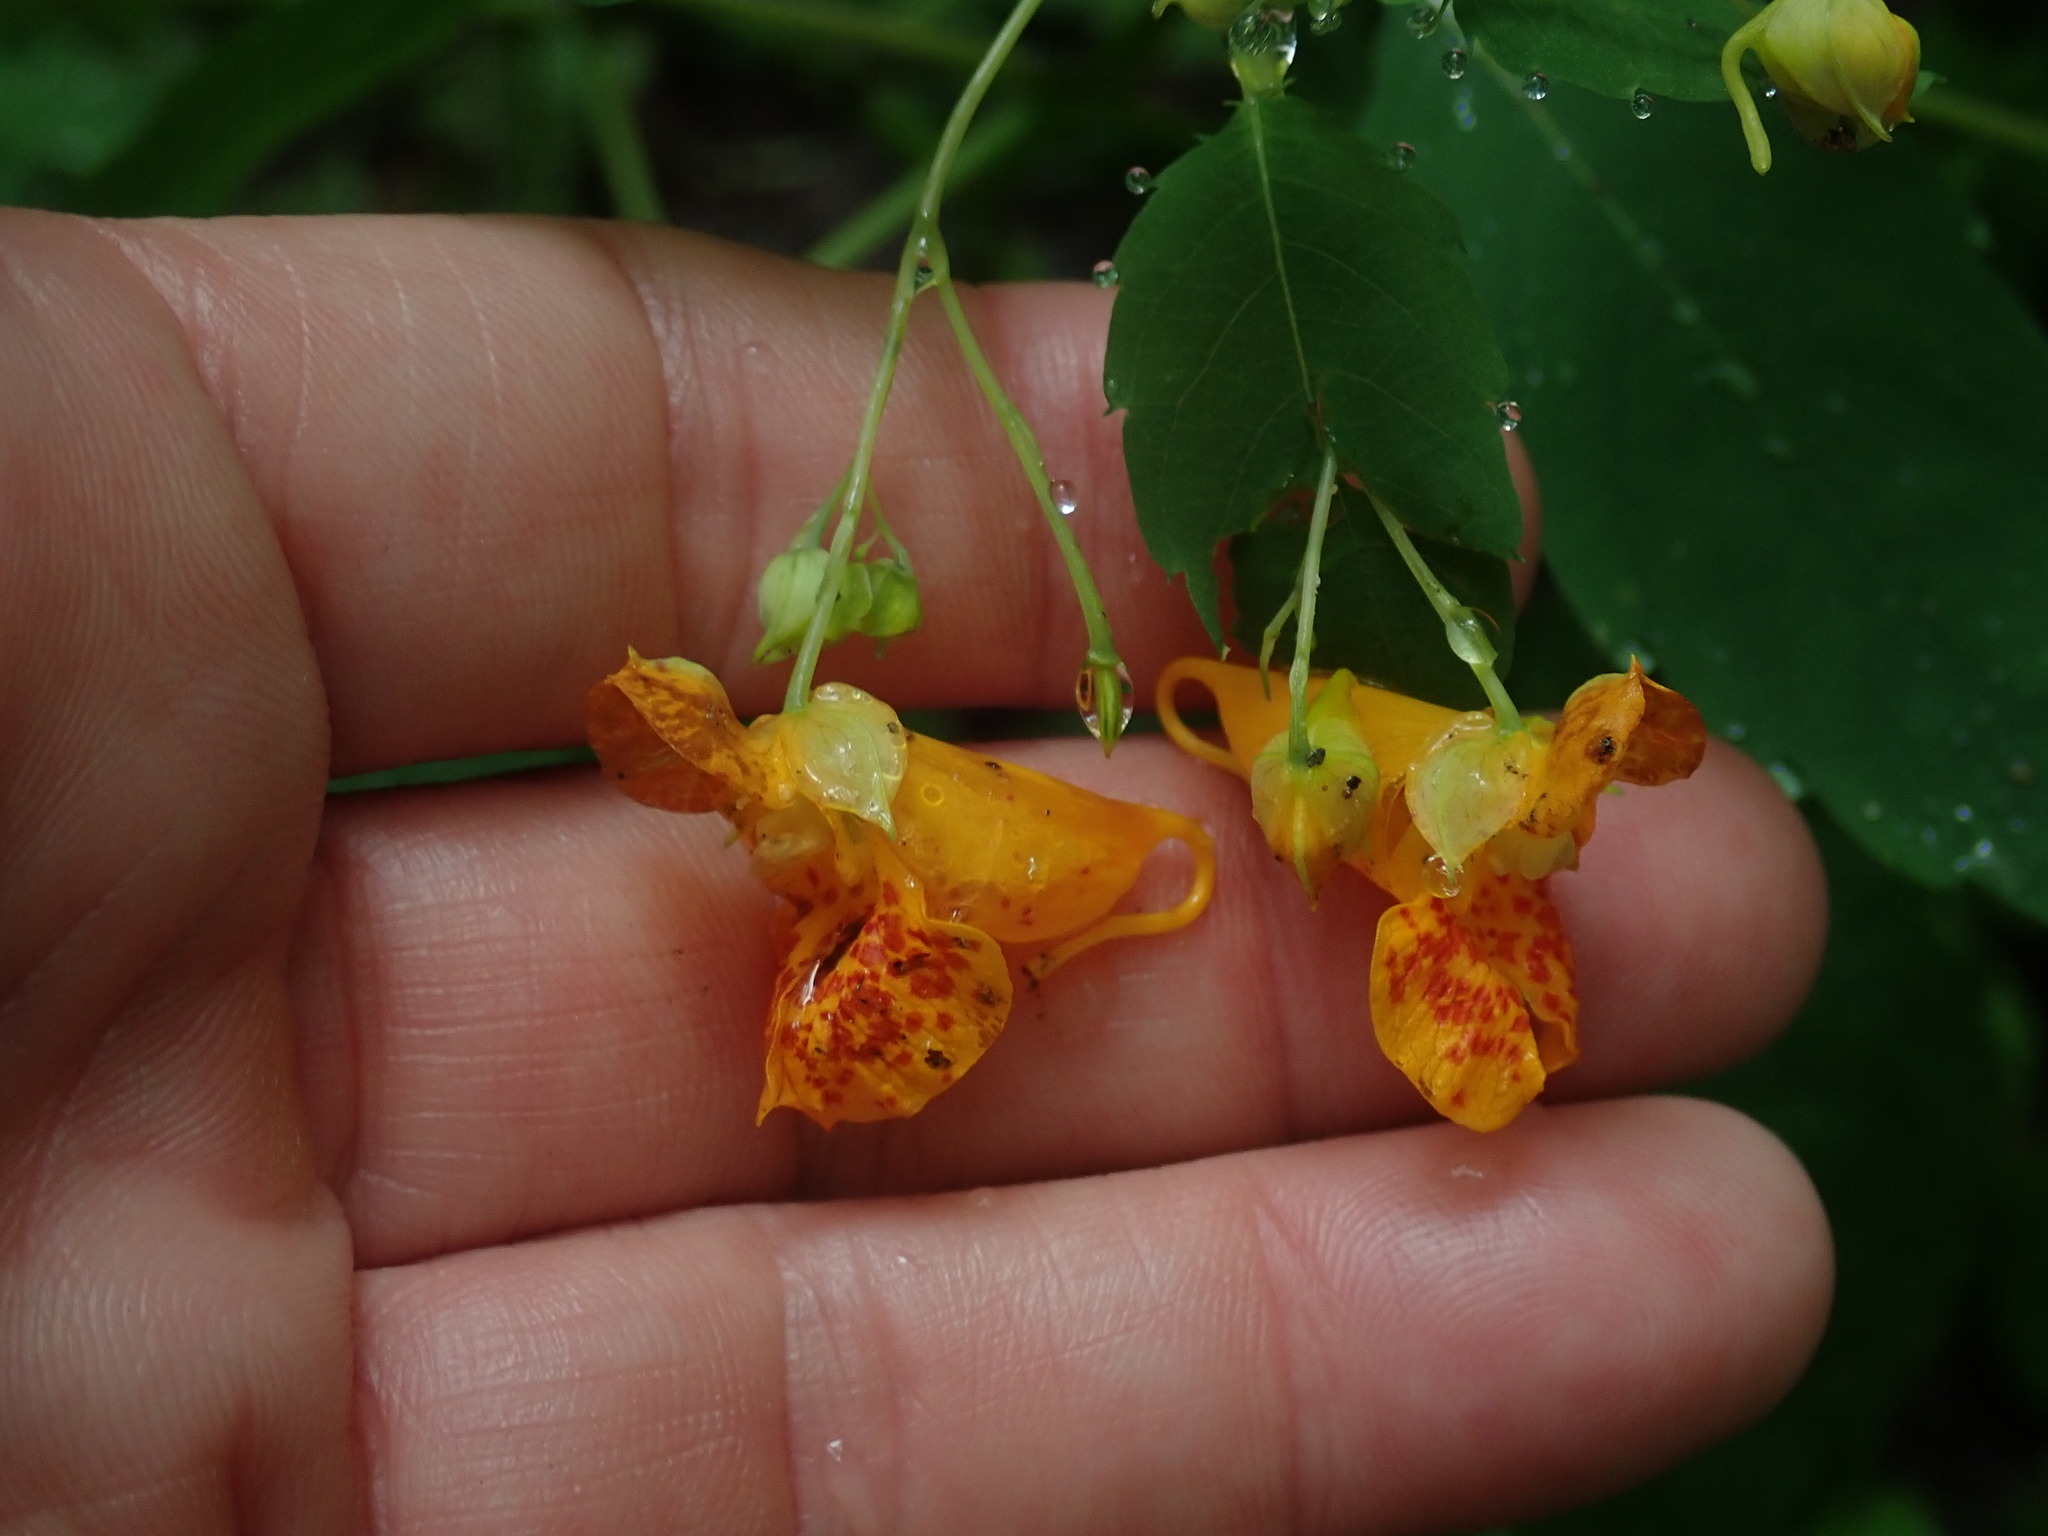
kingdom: Plantae
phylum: Tracheophyta
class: Magnoliopsida
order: Ericales
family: Balsaminaceae
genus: Impatiens
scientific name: Impatiens capensis
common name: Orange balsam
